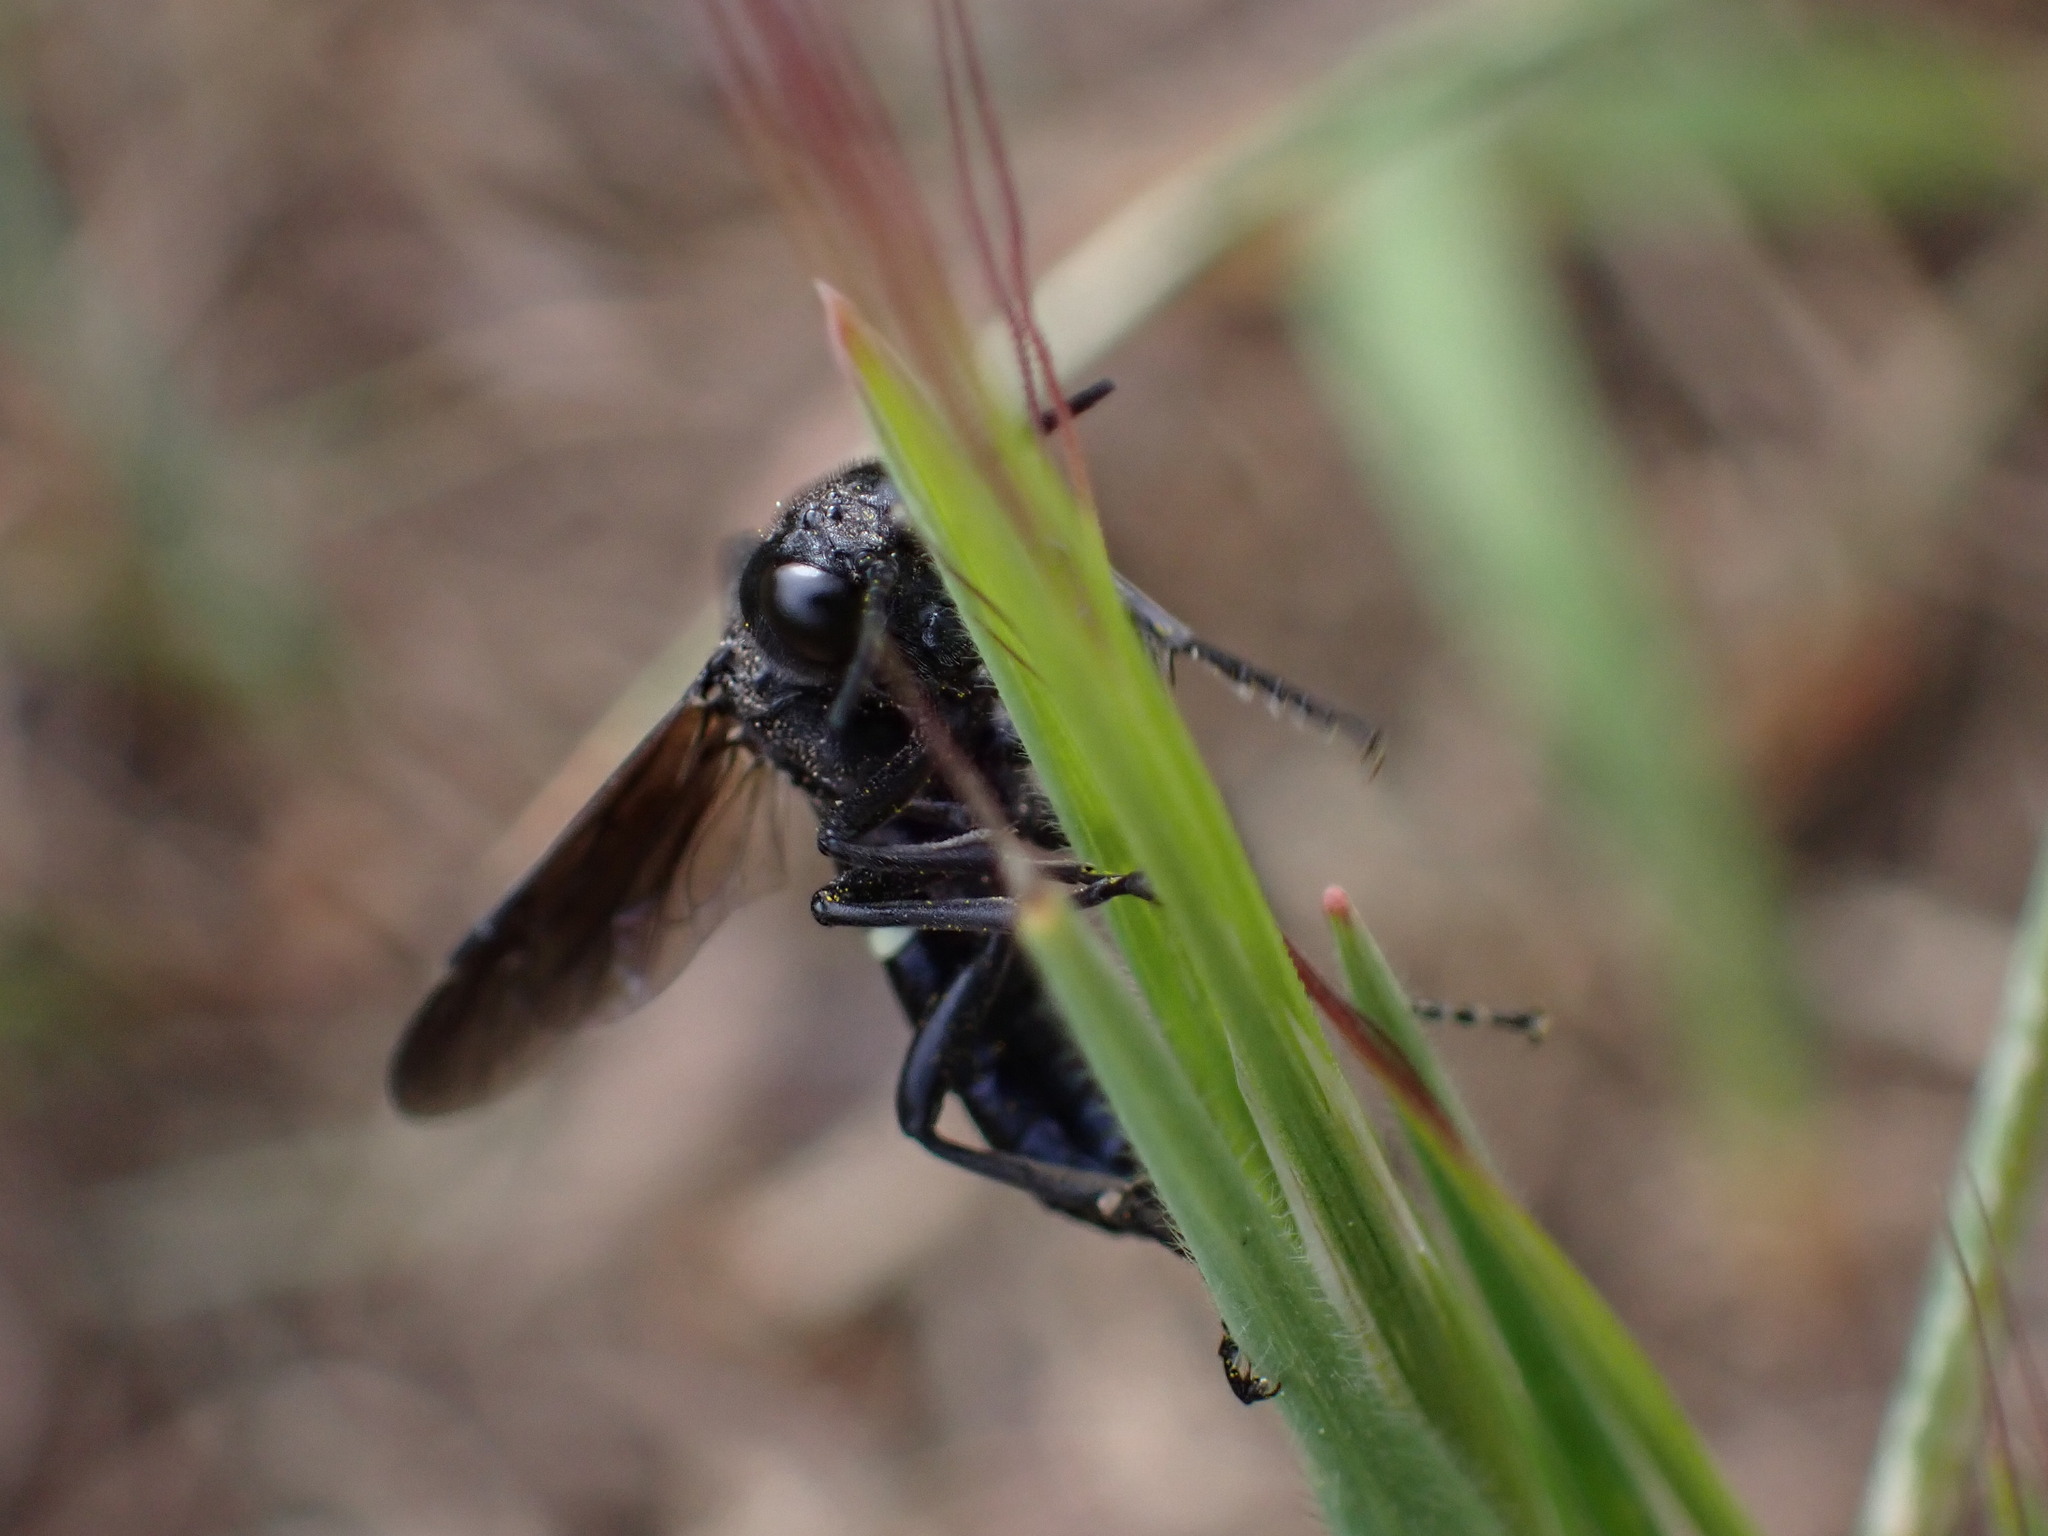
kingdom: Animalia
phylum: Arthropoda
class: Insecta
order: Hymenoptera
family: Tenthredinidae
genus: Tenthredo
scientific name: Tenthredo bifasciata
